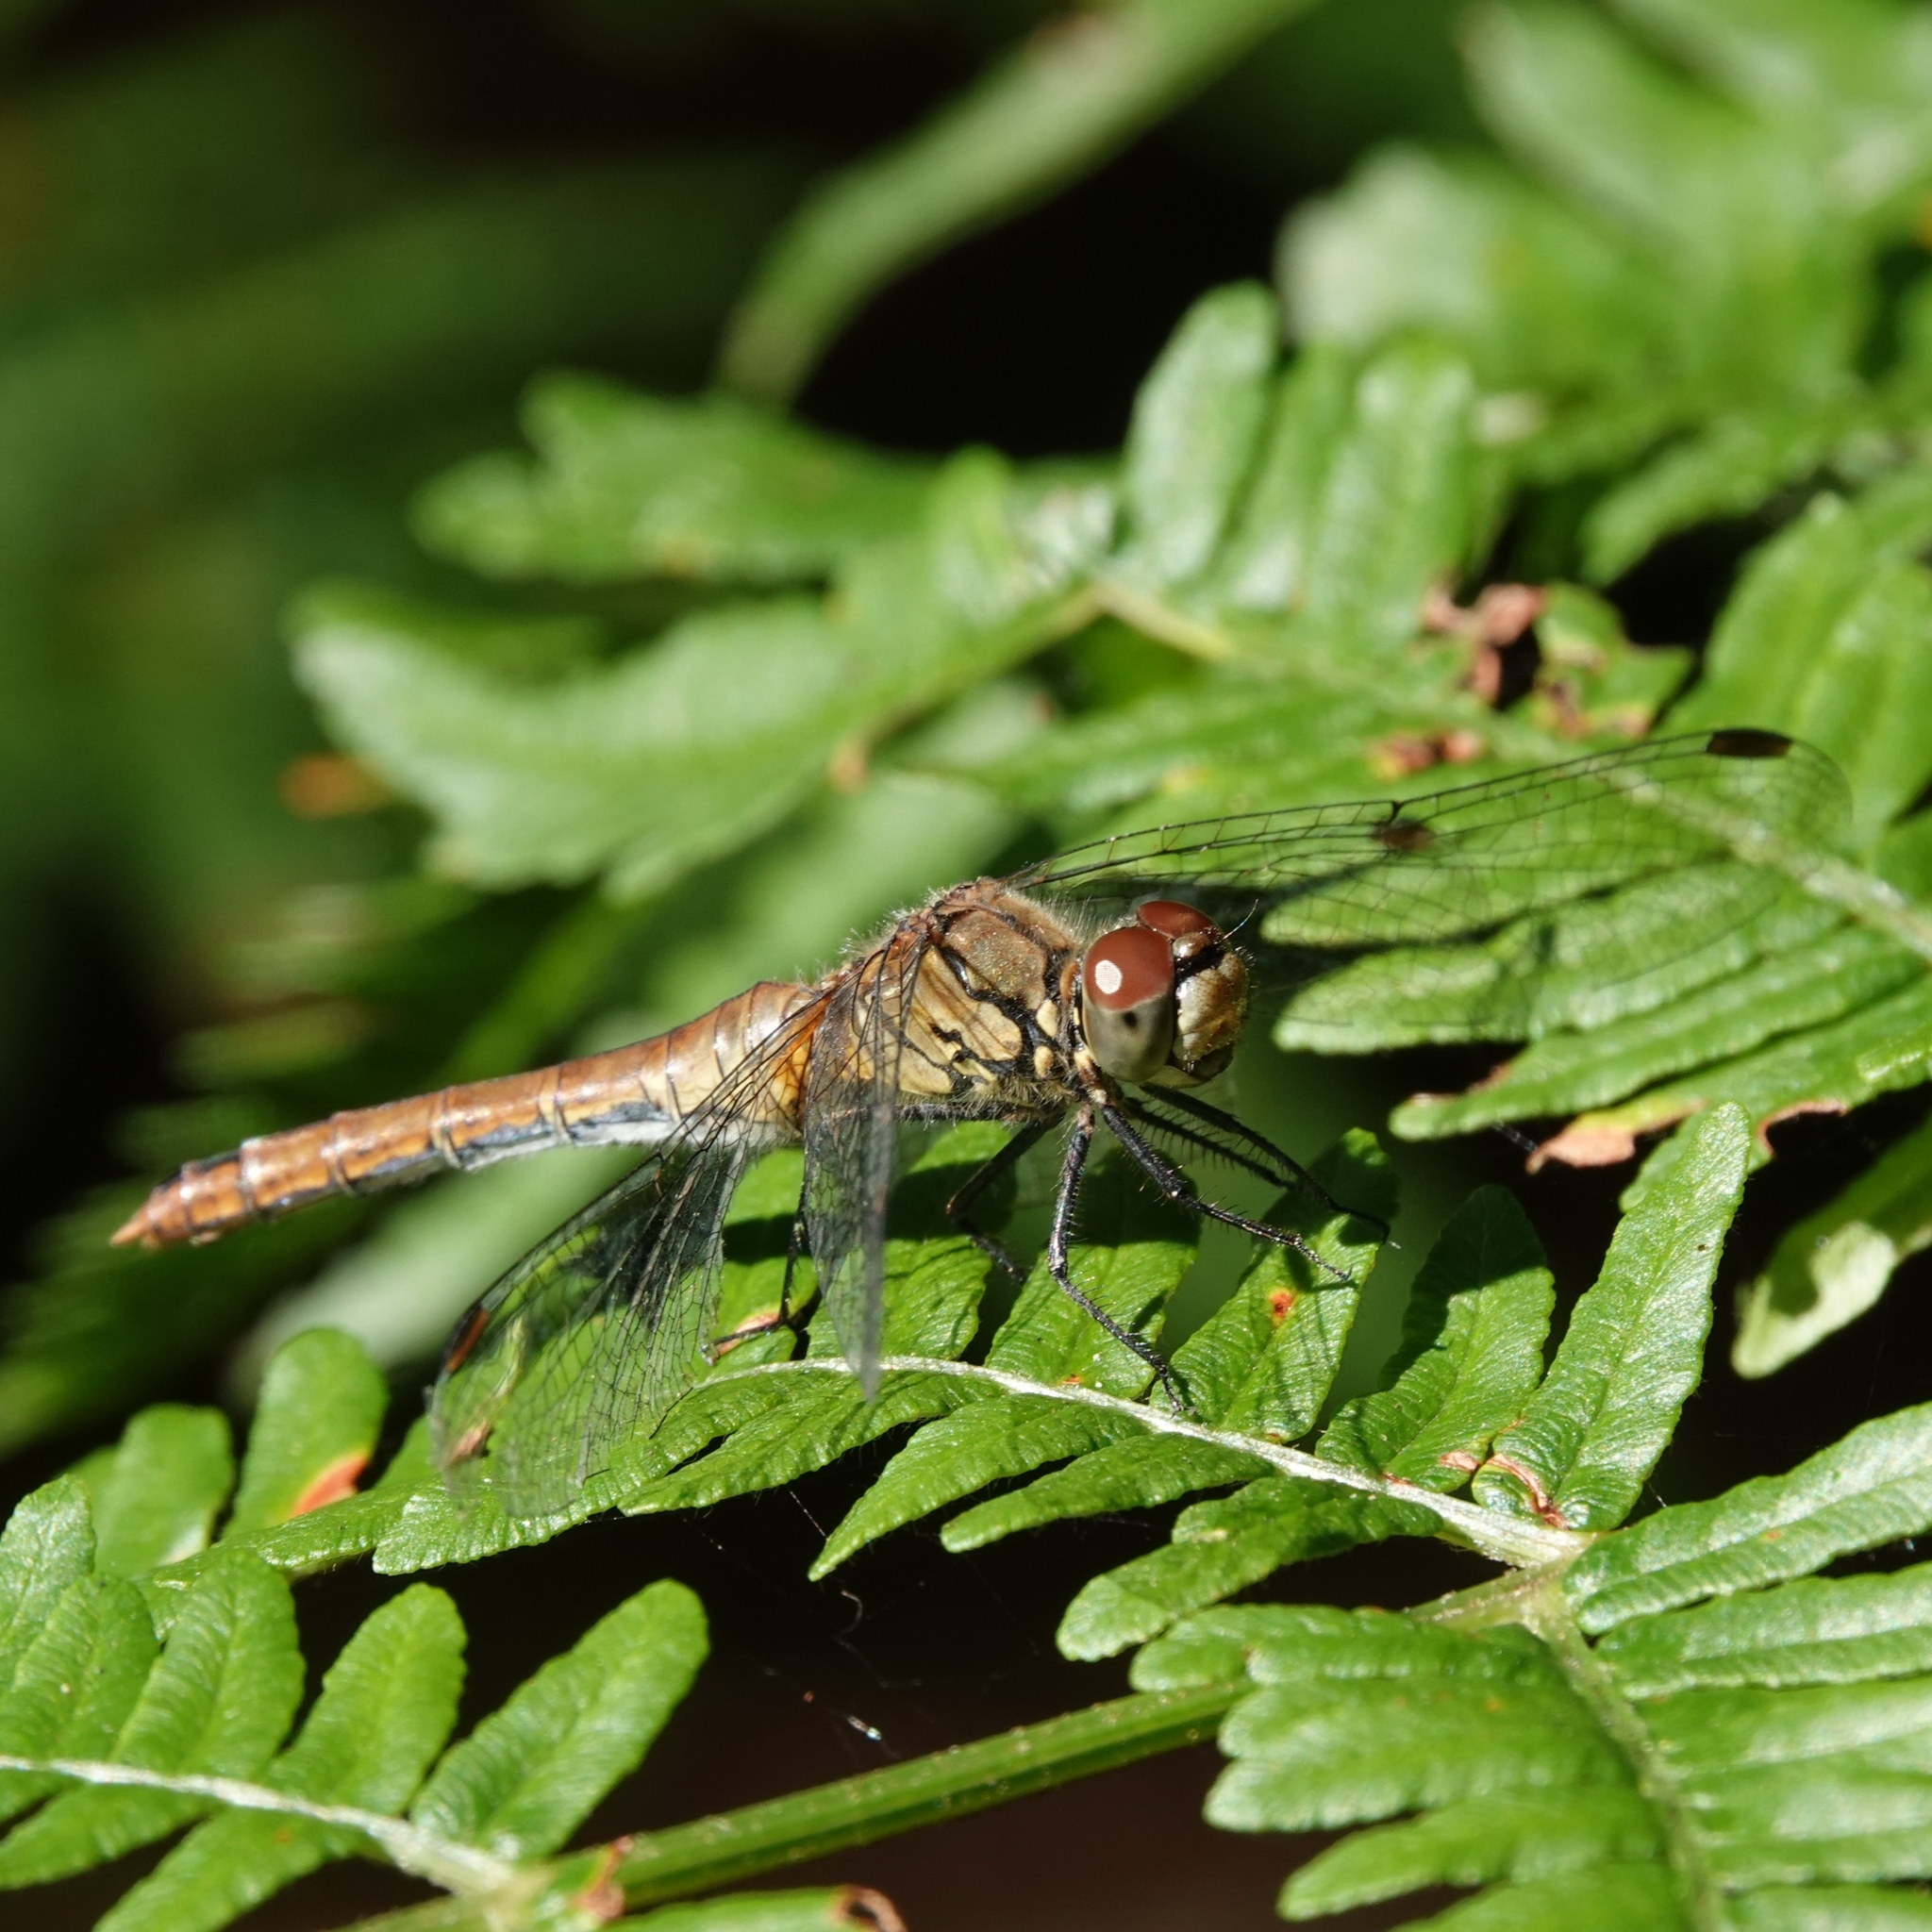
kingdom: Animalia
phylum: Arthropoda
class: Insecta
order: Odonata
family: Libellulidae
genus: Sympetrum
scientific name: Sympetrum sanguineum
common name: Ruddy darter
